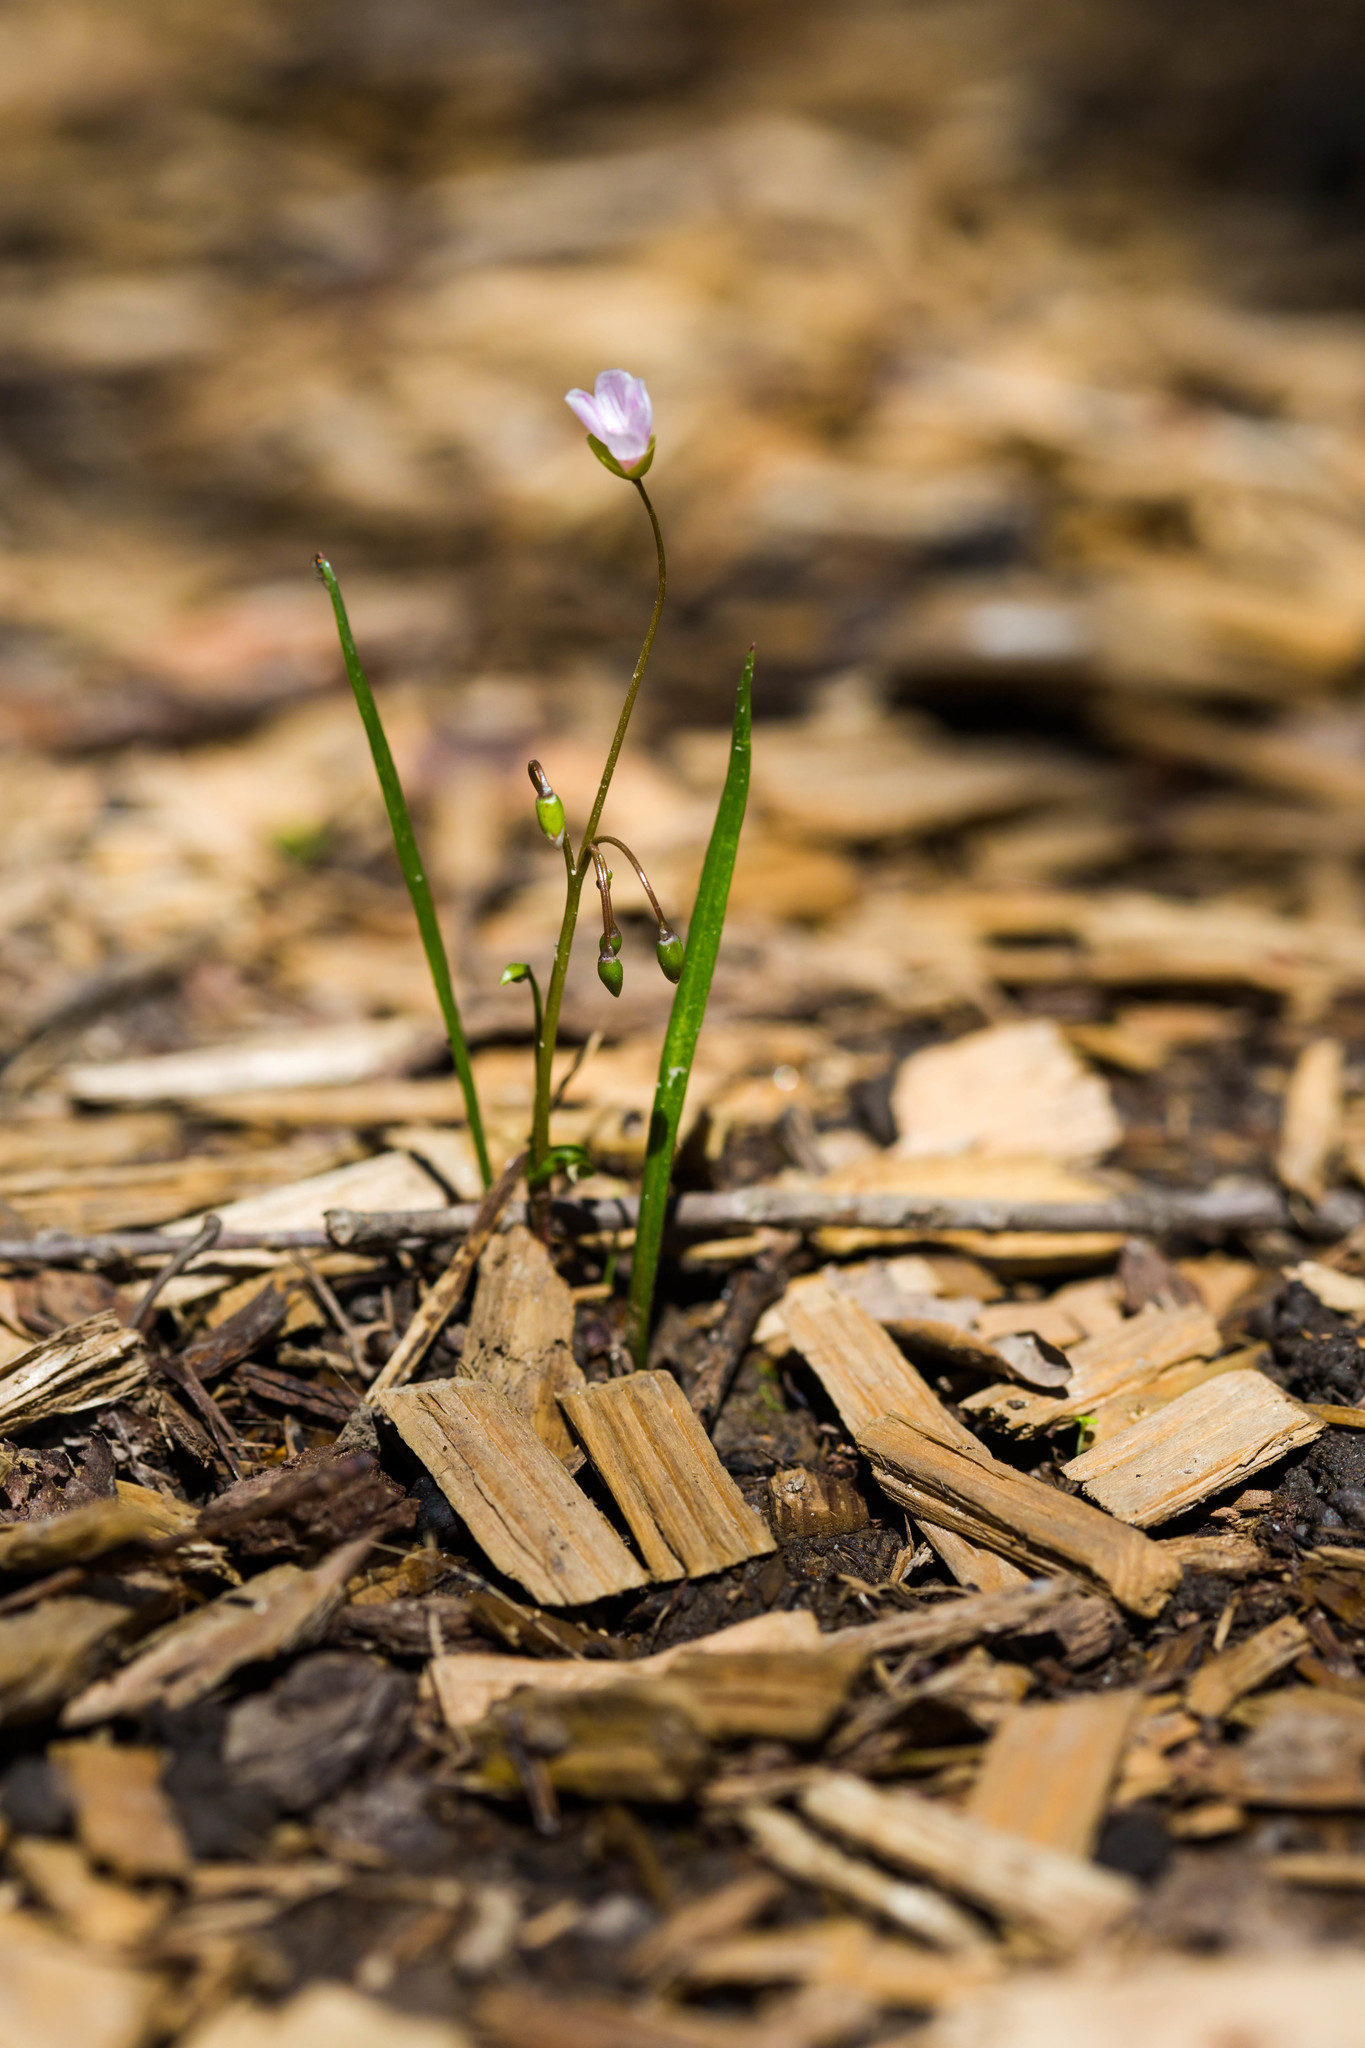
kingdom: Plantae
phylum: Tracheophyta
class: Magnoliopsida
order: Caryophyllales
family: Montiaceae
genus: Claytonia
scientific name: Claytonia virginica
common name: Virginia springbeauty
